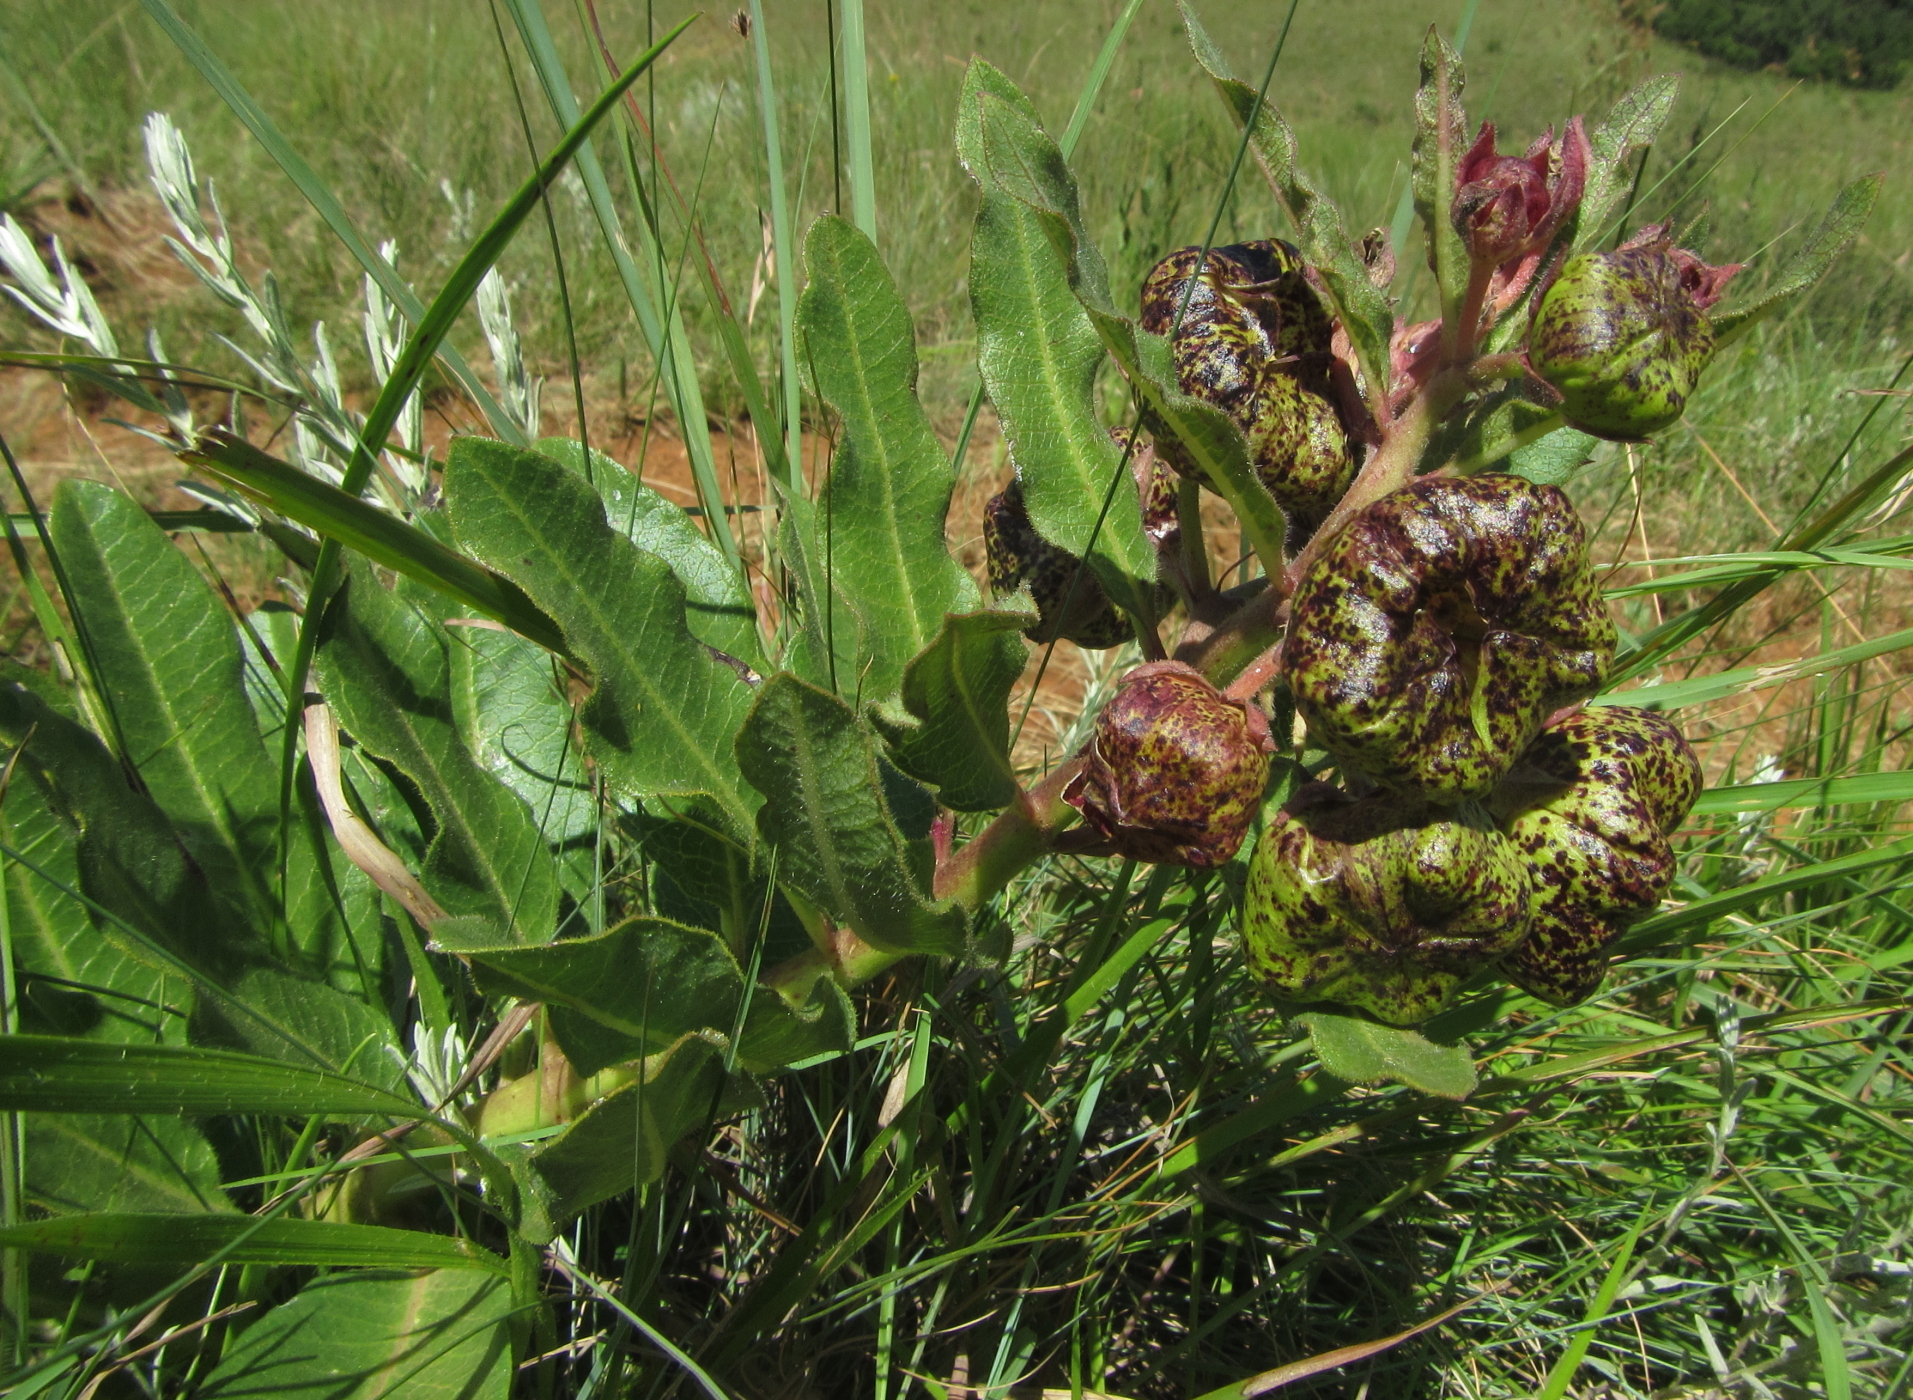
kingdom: Plantae
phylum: Tracheophyta
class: Magnoliopsida
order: Gentianales
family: Apocynaceae
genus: Pachycarpus
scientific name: Pachycarpus grandiflorus
